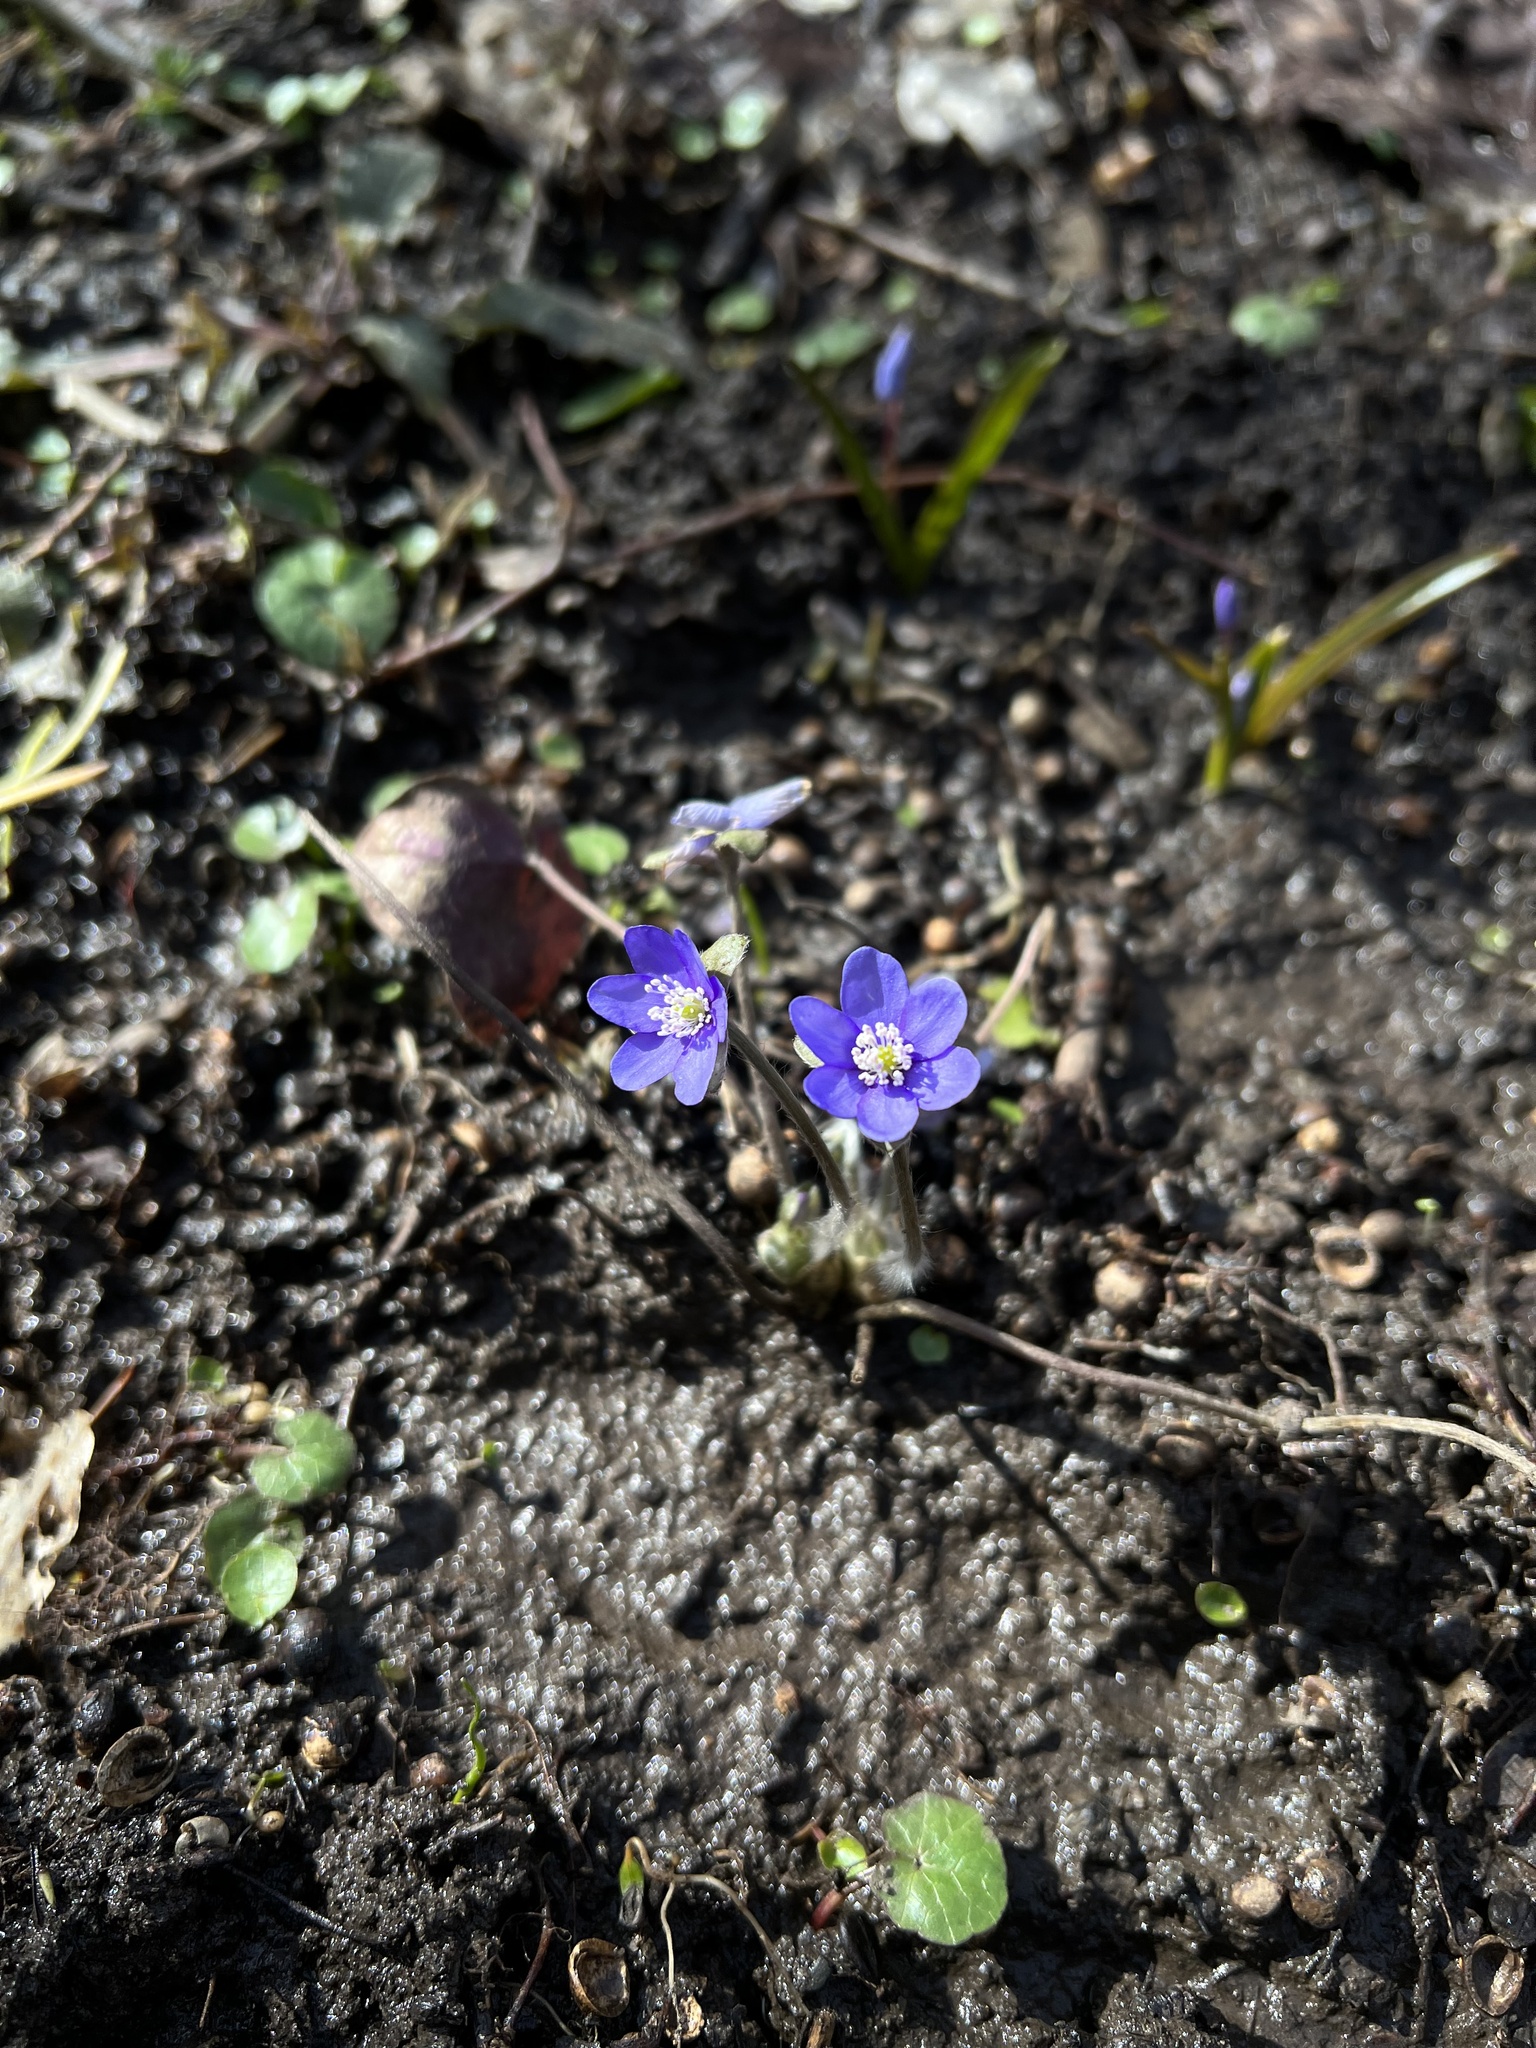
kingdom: Plantae
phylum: Tracheophyta
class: Magnoliopsida
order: Ranunculales
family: Ranunculaceae
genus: Hepatica
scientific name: Hepatica nobilis
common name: Liverleaf
